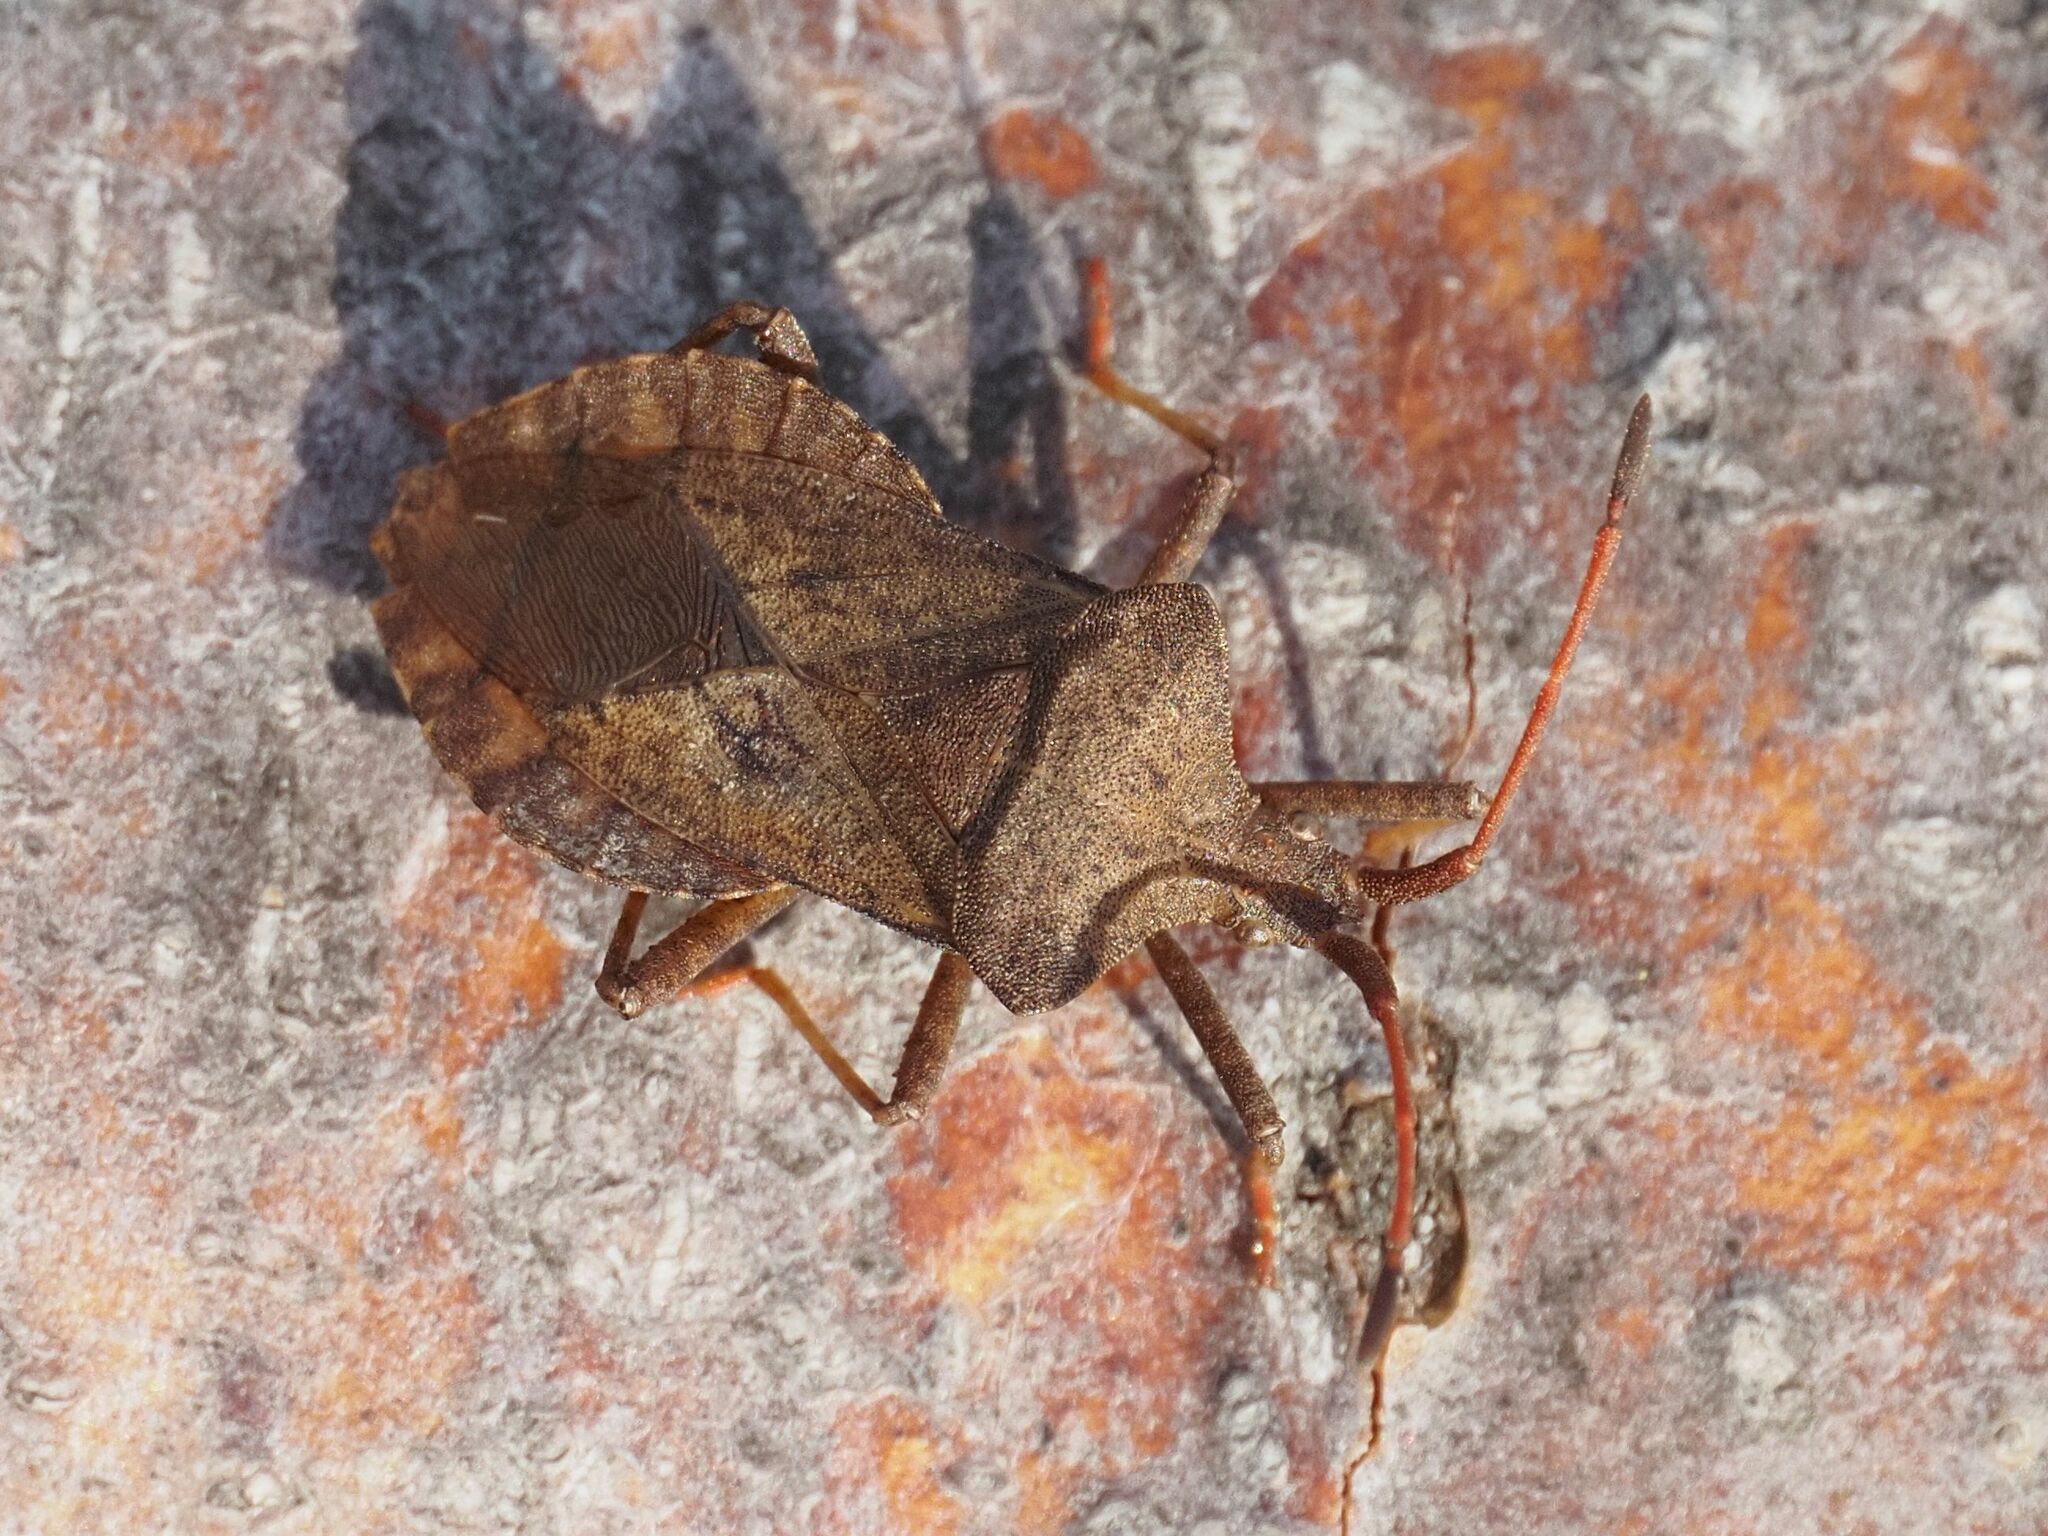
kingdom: Animalia
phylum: Arthropoda
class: Insecta
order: Hemiptera
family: Coreidae
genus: Coreus
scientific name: Coreus marginatus
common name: Dock bug
